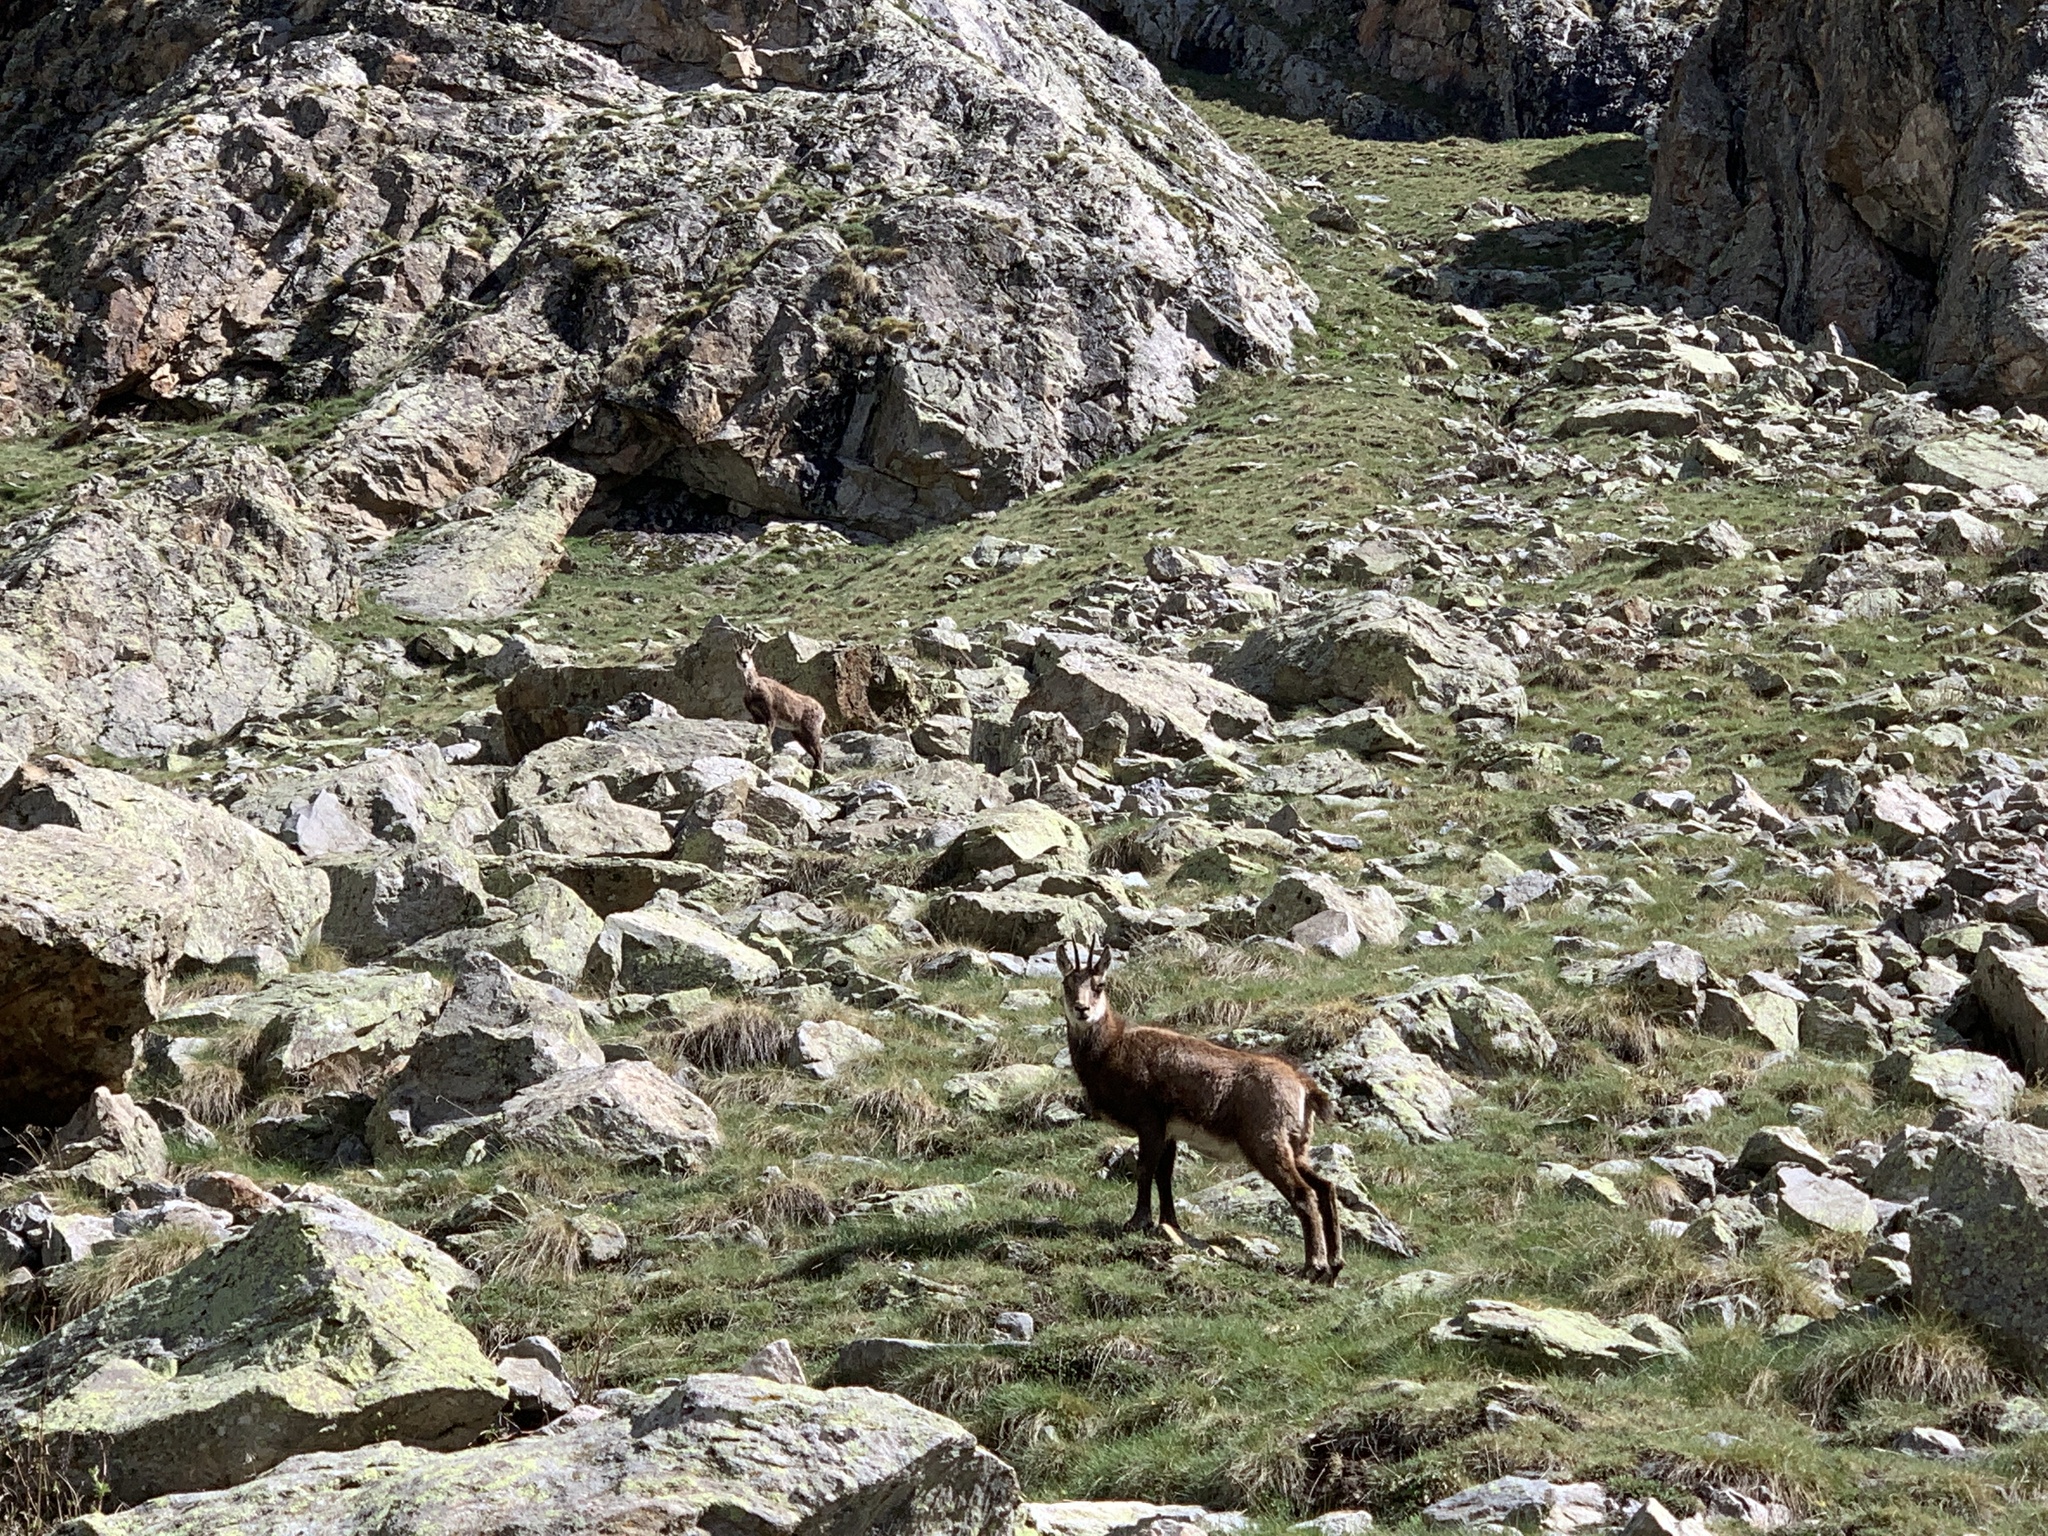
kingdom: Animalia
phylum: Chordata
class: Mammalia
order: Artiodactyla
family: Bovidae
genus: Rupicapra
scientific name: Rupicapra rupicapra
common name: Chamois
